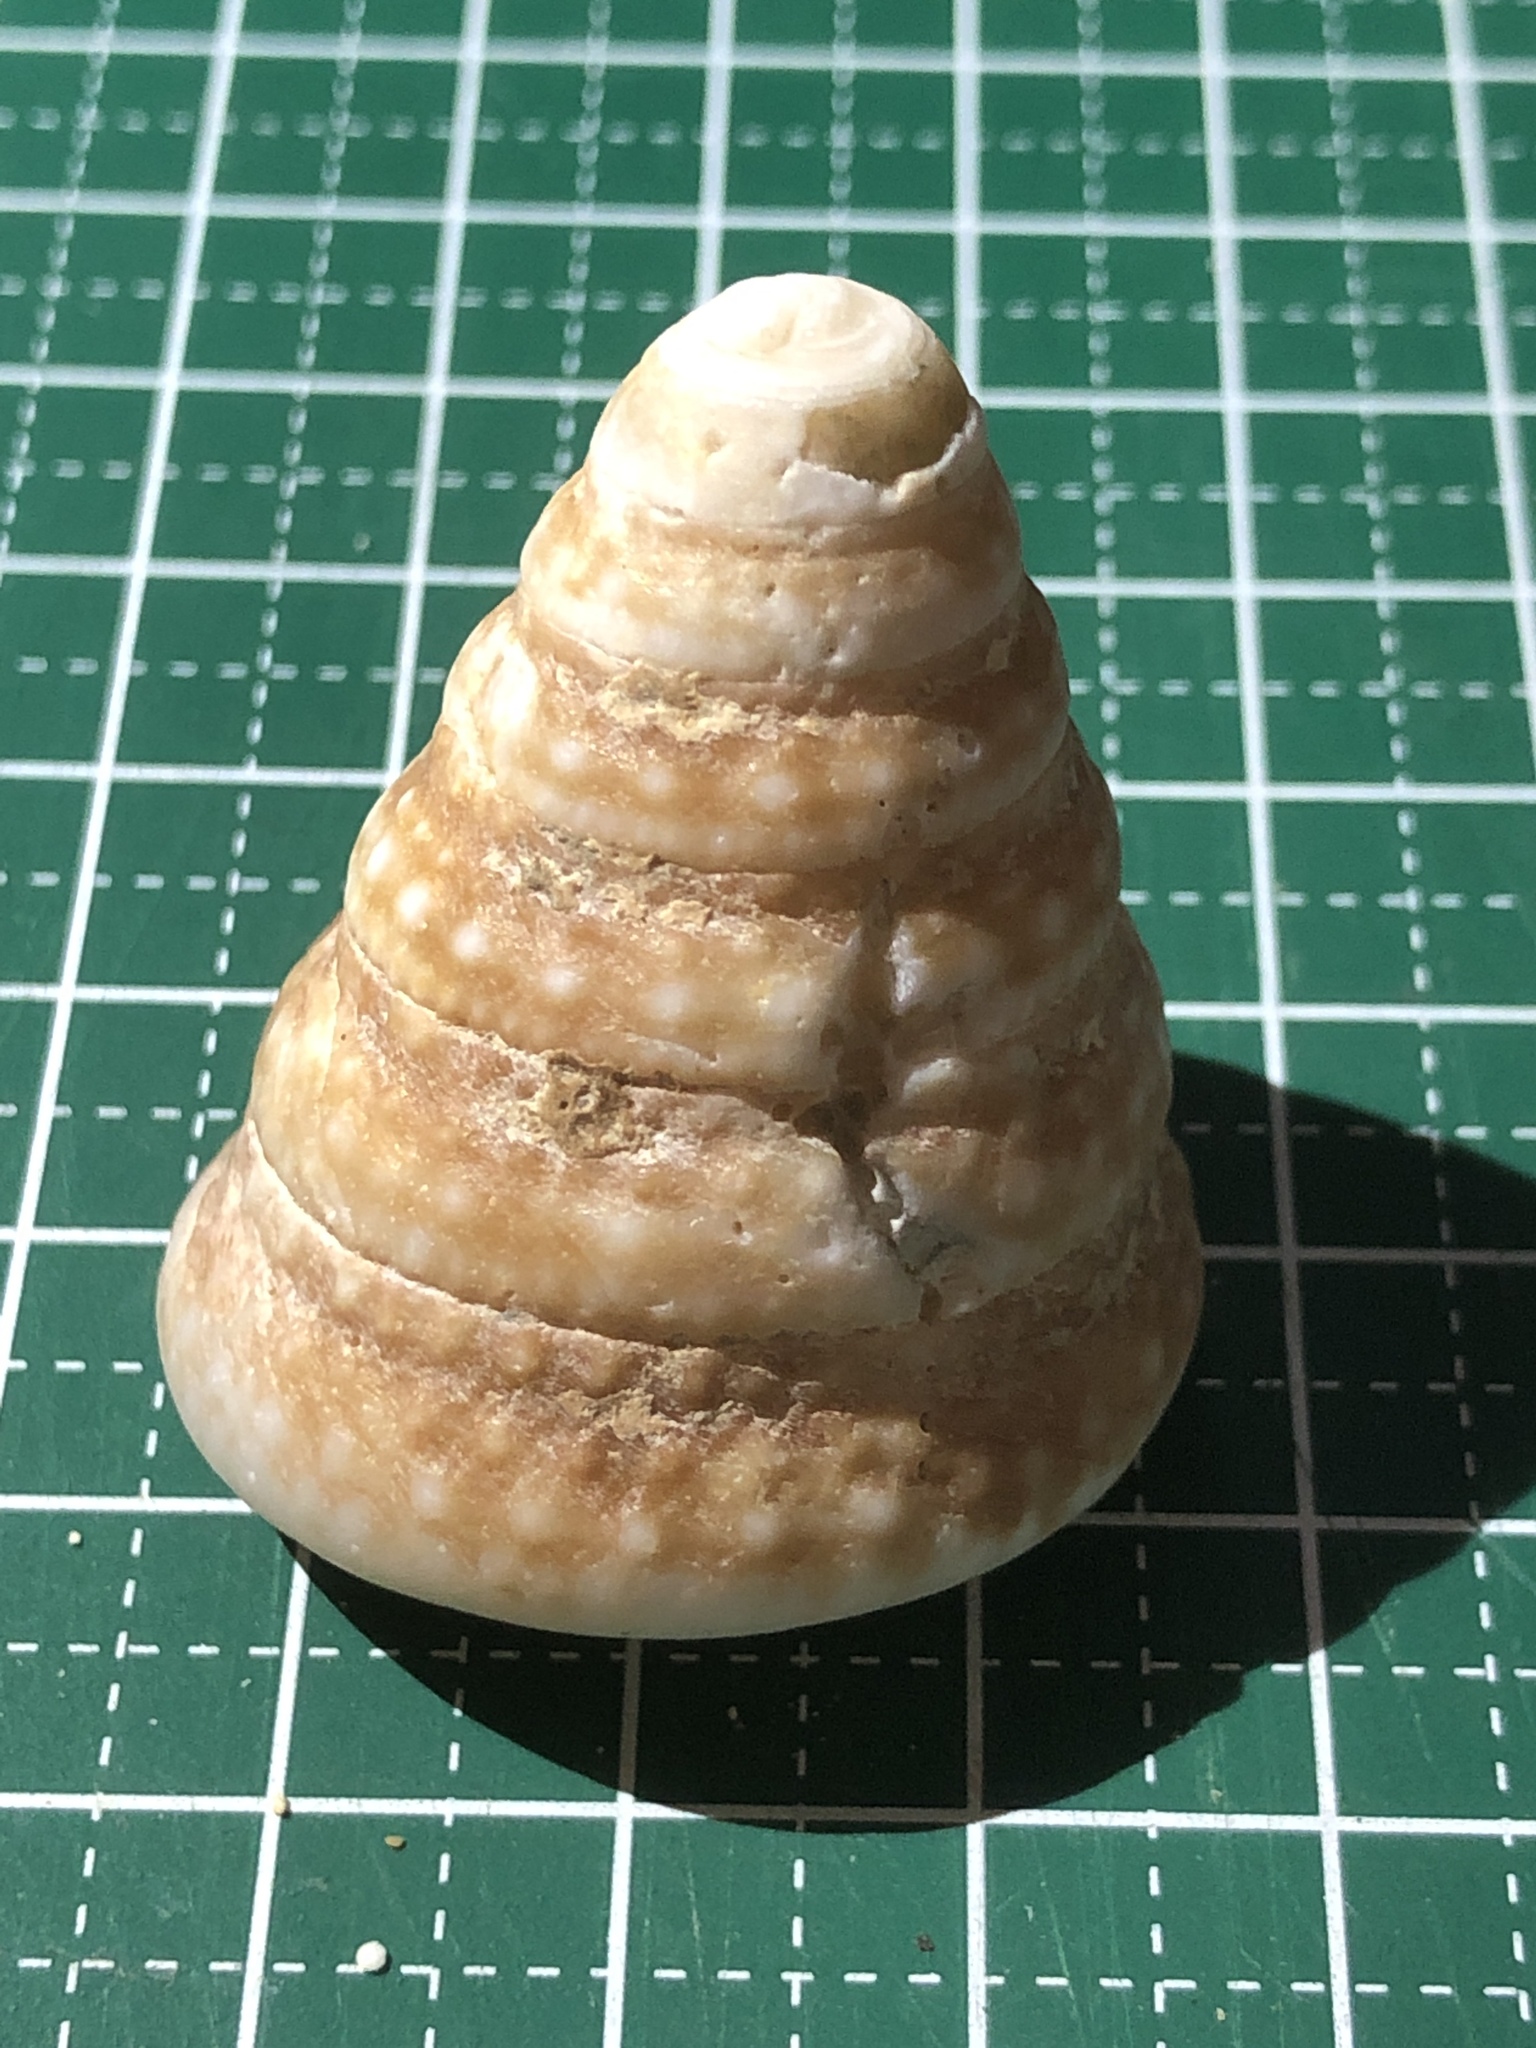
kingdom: Animalia
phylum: Mollusca
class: Gastropoda
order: Trochida
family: Tegulidae
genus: Tectus
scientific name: Tectus triserialis
